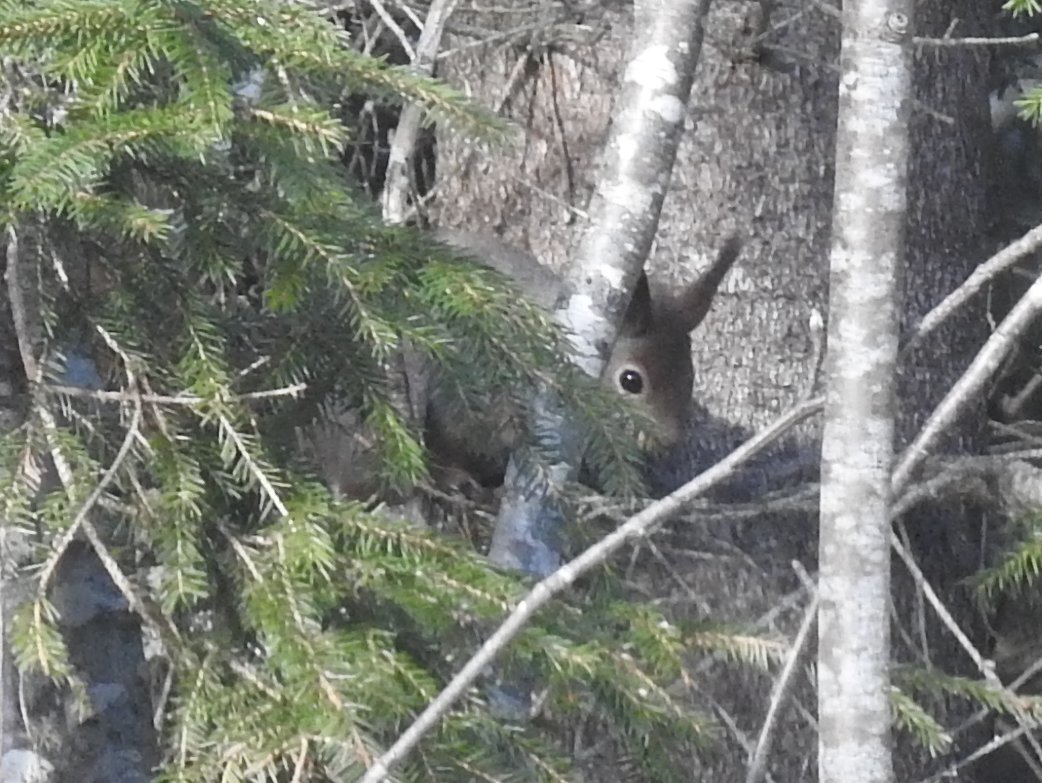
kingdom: Animalia
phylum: Chordata
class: Mammalia
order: Rodentia
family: Sciuridae
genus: Sciurus
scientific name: Sciurus vulgaris
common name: Eurasian red squirrel
